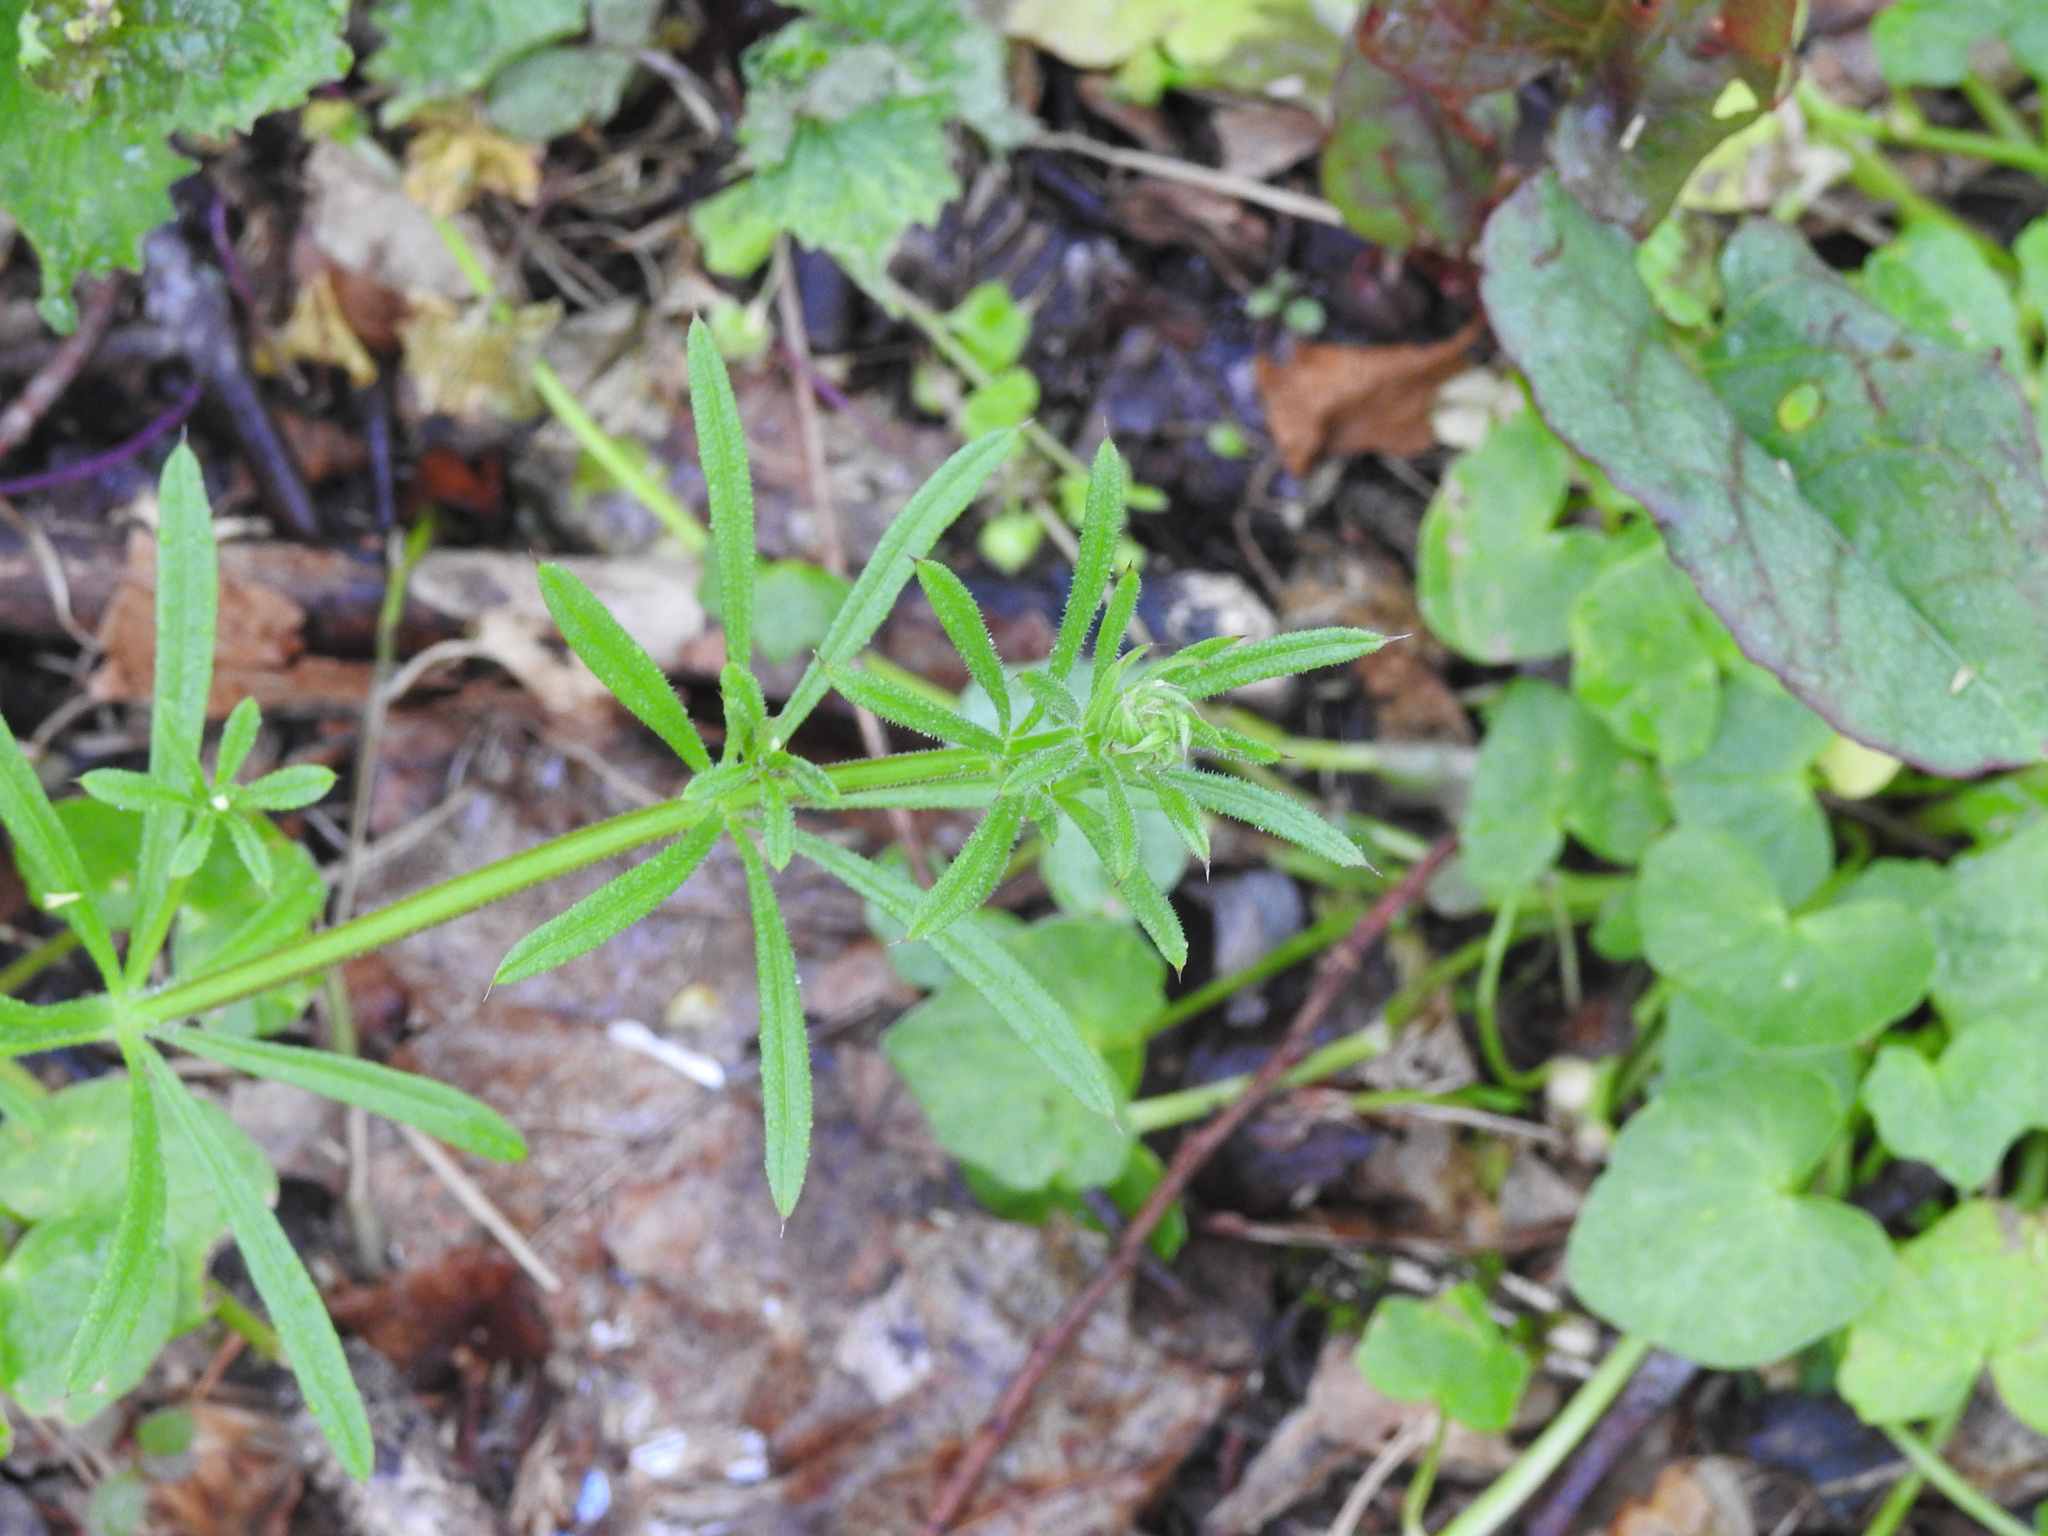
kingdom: Plantae
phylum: Tracheophyta
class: Magnoliopsida
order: Gentianales
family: Rubiaceae
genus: Galium
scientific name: Galium aparine
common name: Cleavers
